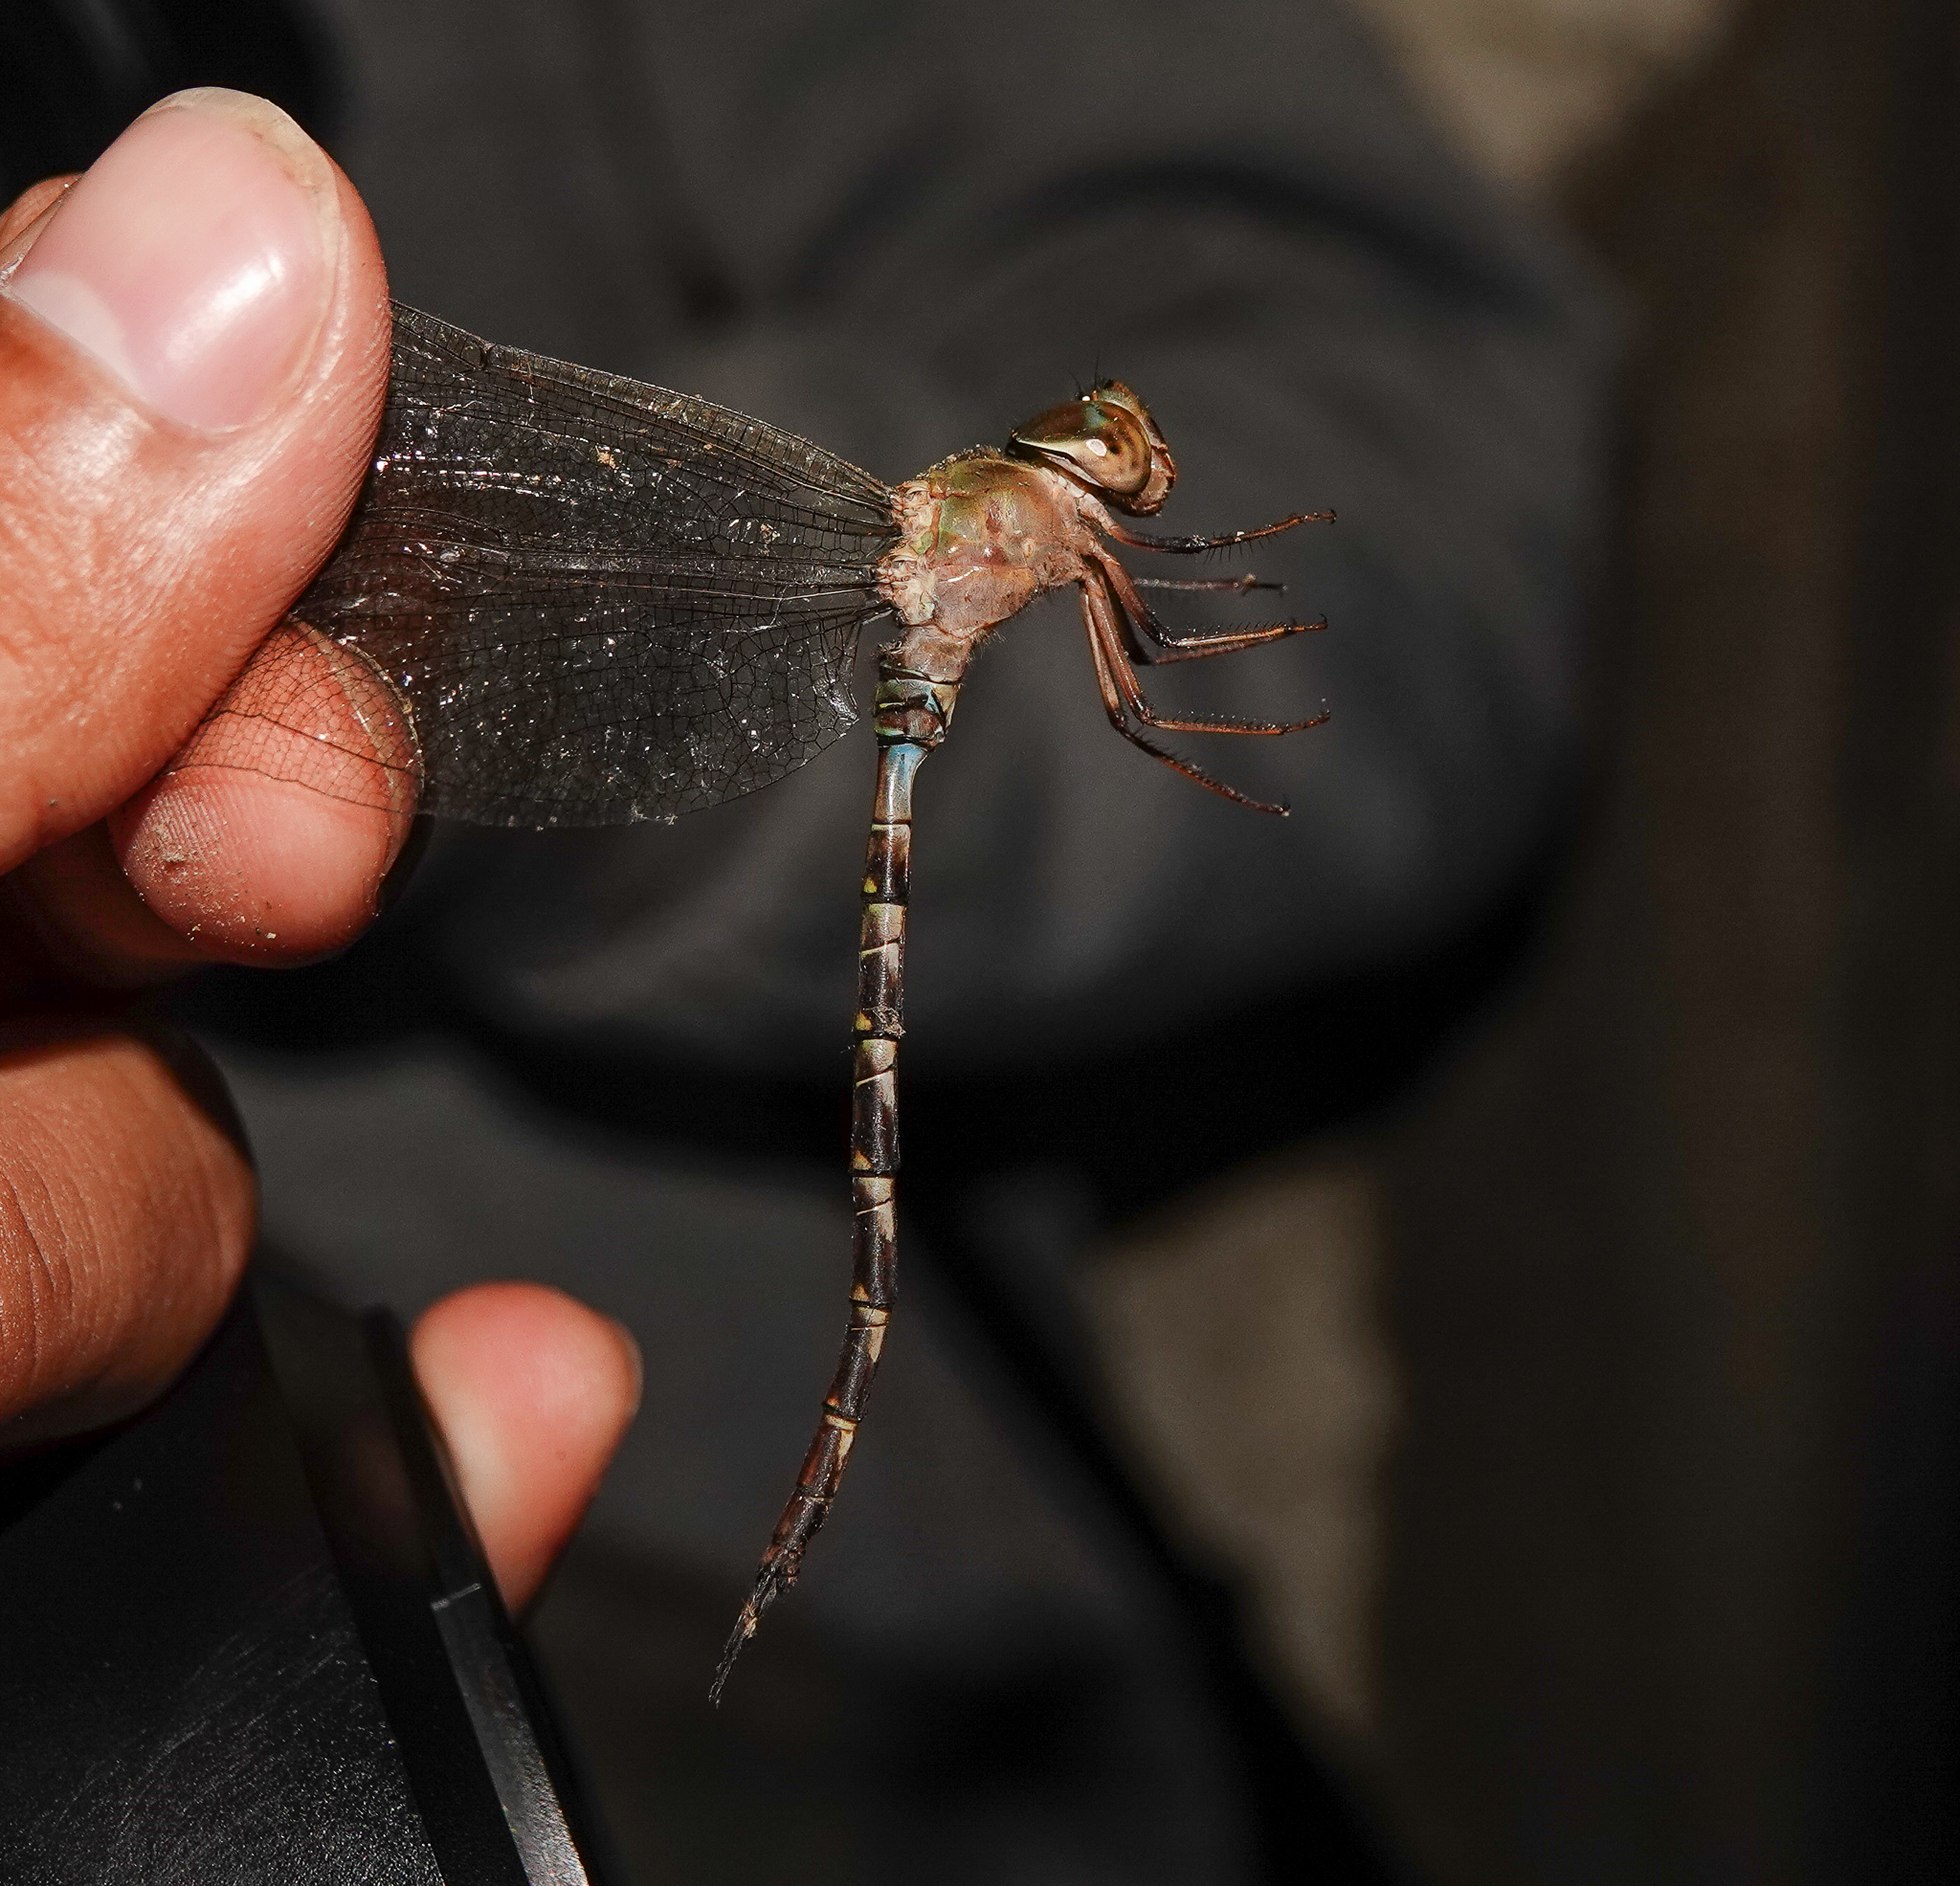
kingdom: Animalia
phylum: Arthropoda
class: Insecta
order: Odonata
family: Aeshnidae
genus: Gynacantha
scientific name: Gynacantha subinterrupta
